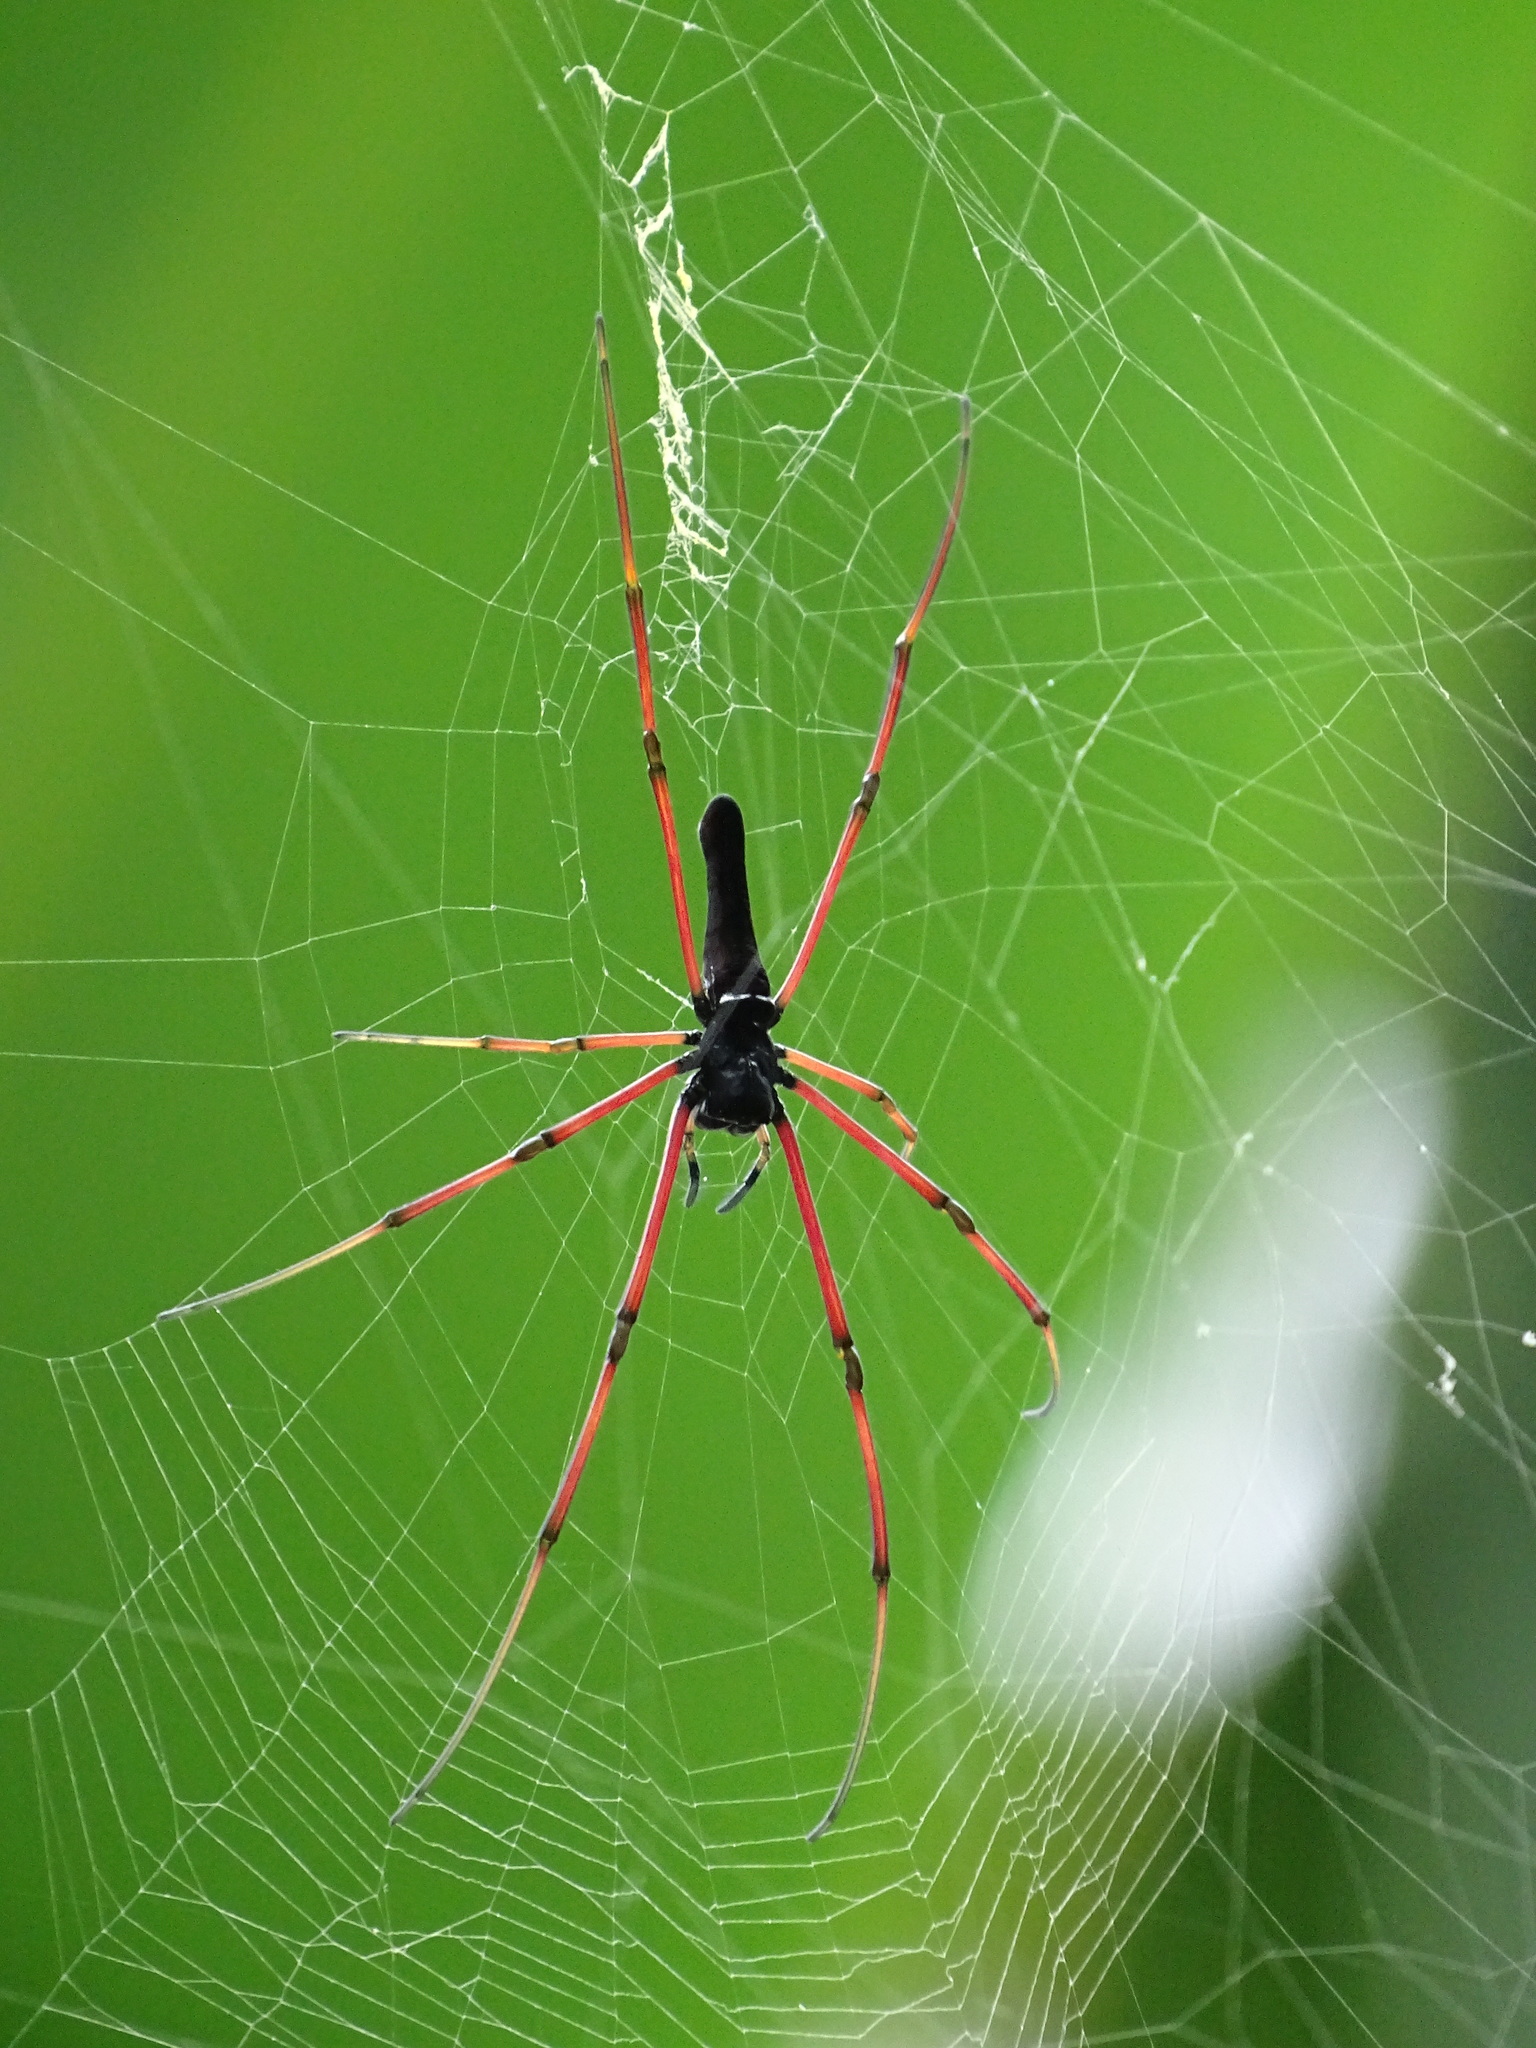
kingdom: Animalia
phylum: Arthropoda
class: Arachnida
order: Araneae
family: Araneidae
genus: Nephila
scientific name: Nephila pilipes
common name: Giant golden orb weaver
